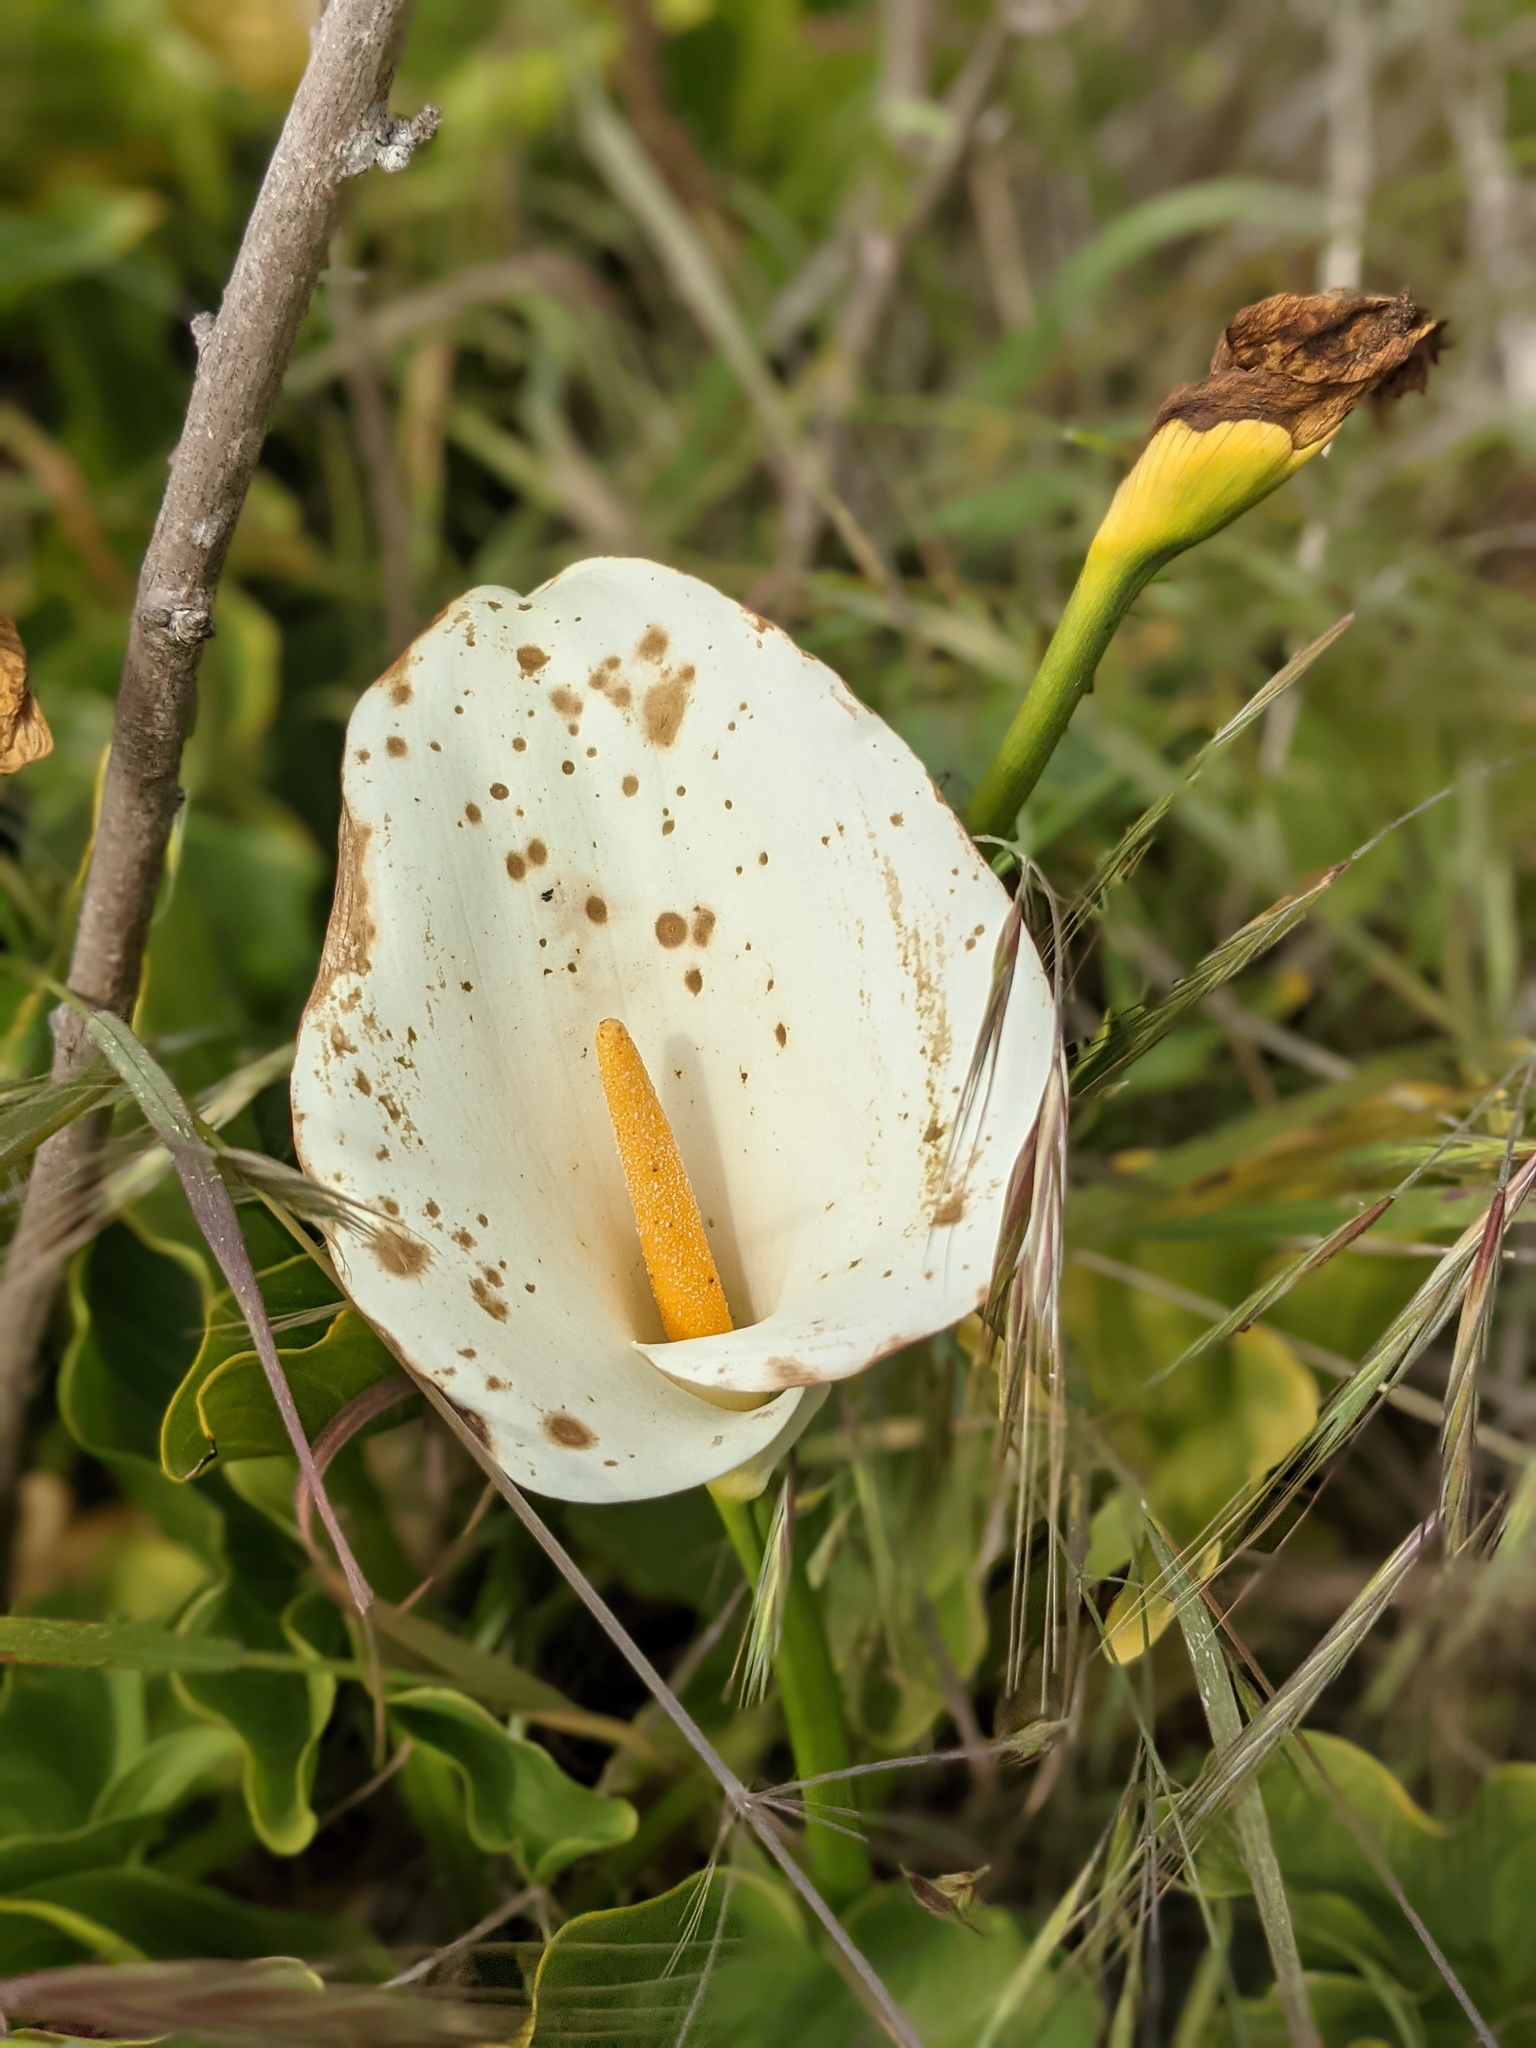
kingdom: Plantae
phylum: Tracheophyta
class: Liliopsida
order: Alismatales
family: Araceae
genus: Zantedeschia
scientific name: Zantedeschia aethiopica
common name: Altar-lily
